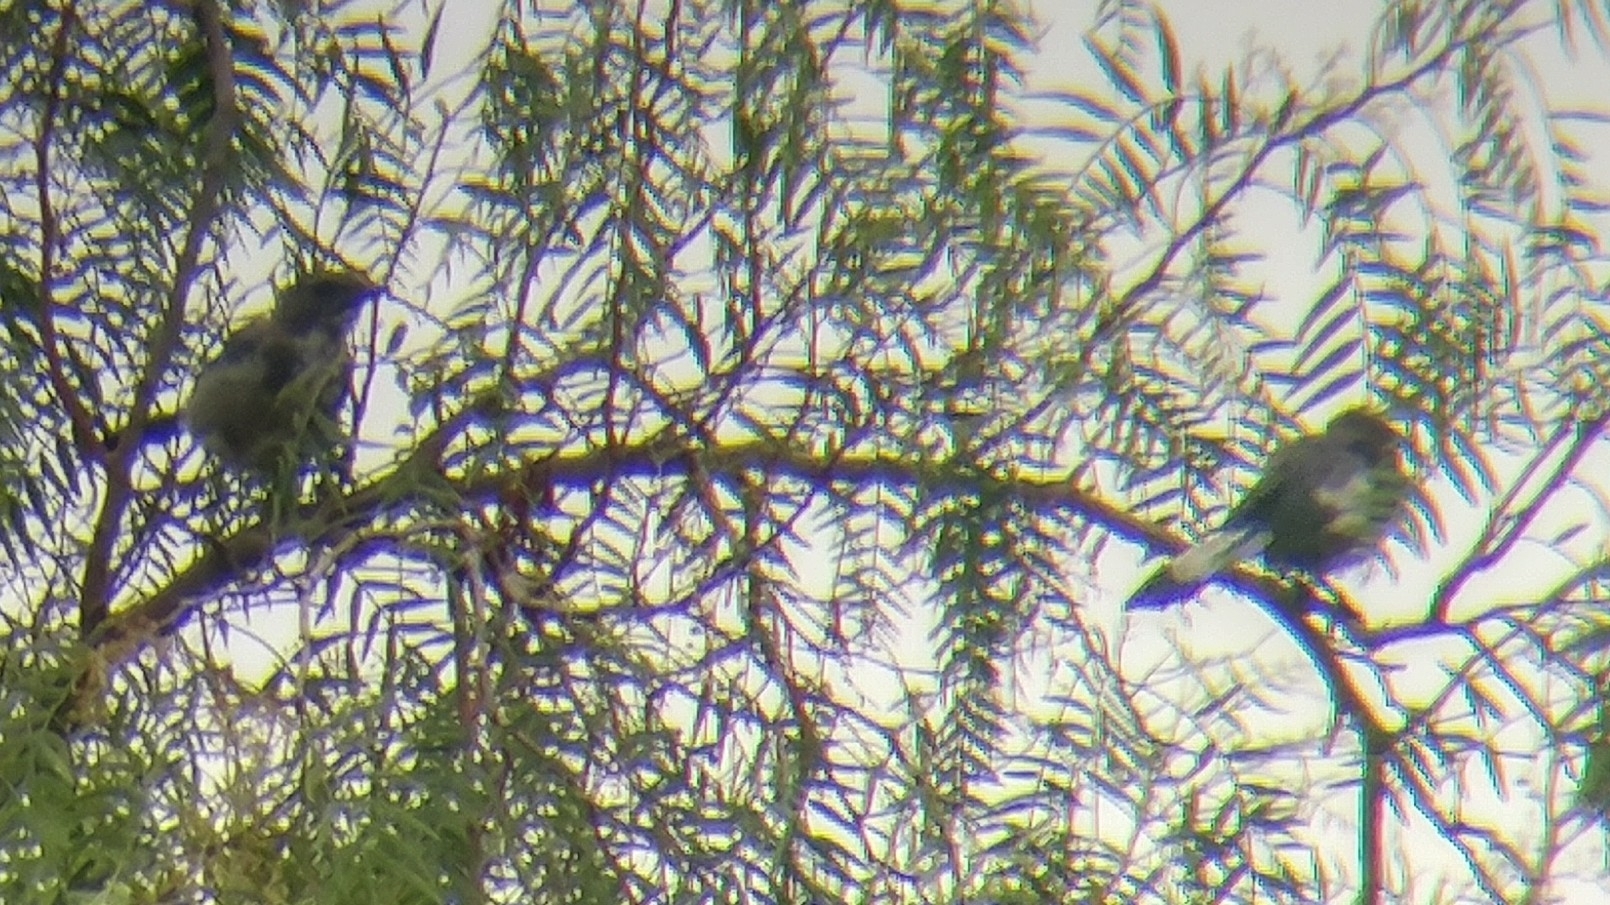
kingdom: Animalia
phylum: Chordata
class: Aves
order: Passeriformes
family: Corvidae
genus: Aphelocoma
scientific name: Aphelocoma californica
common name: California scrub-jay
